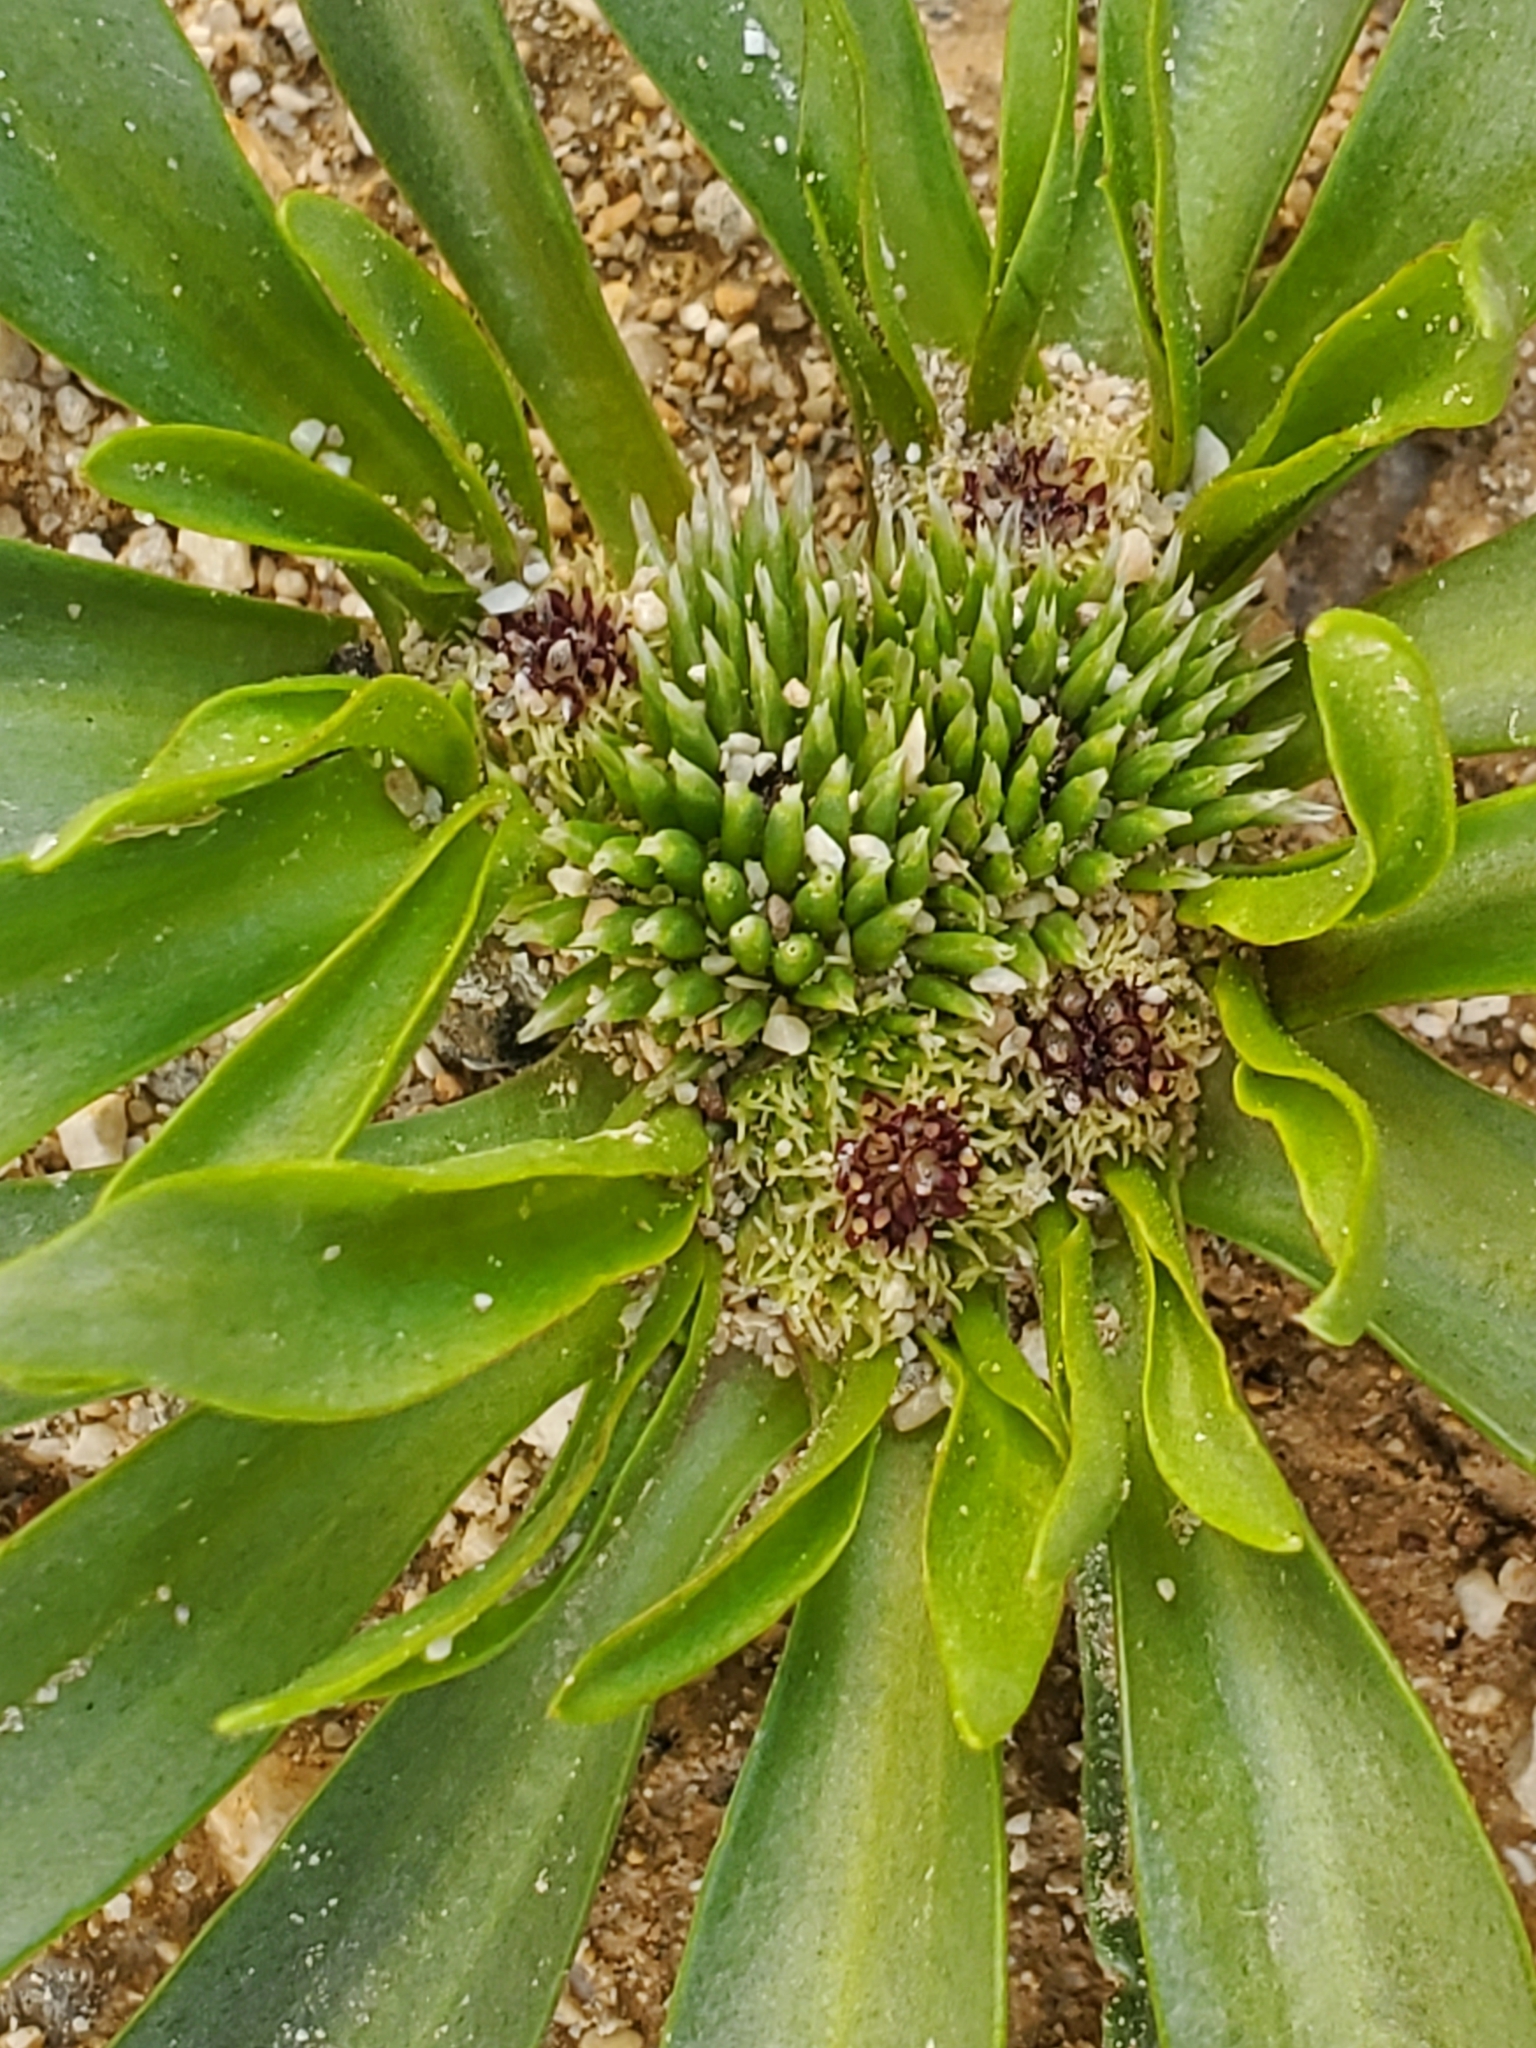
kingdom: Plantae
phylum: Tracheophyta
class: Magnoliopsida
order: Asterales
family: Asteraceae
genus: Gymnarrhena
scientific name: Gymnarrhena micrantha
